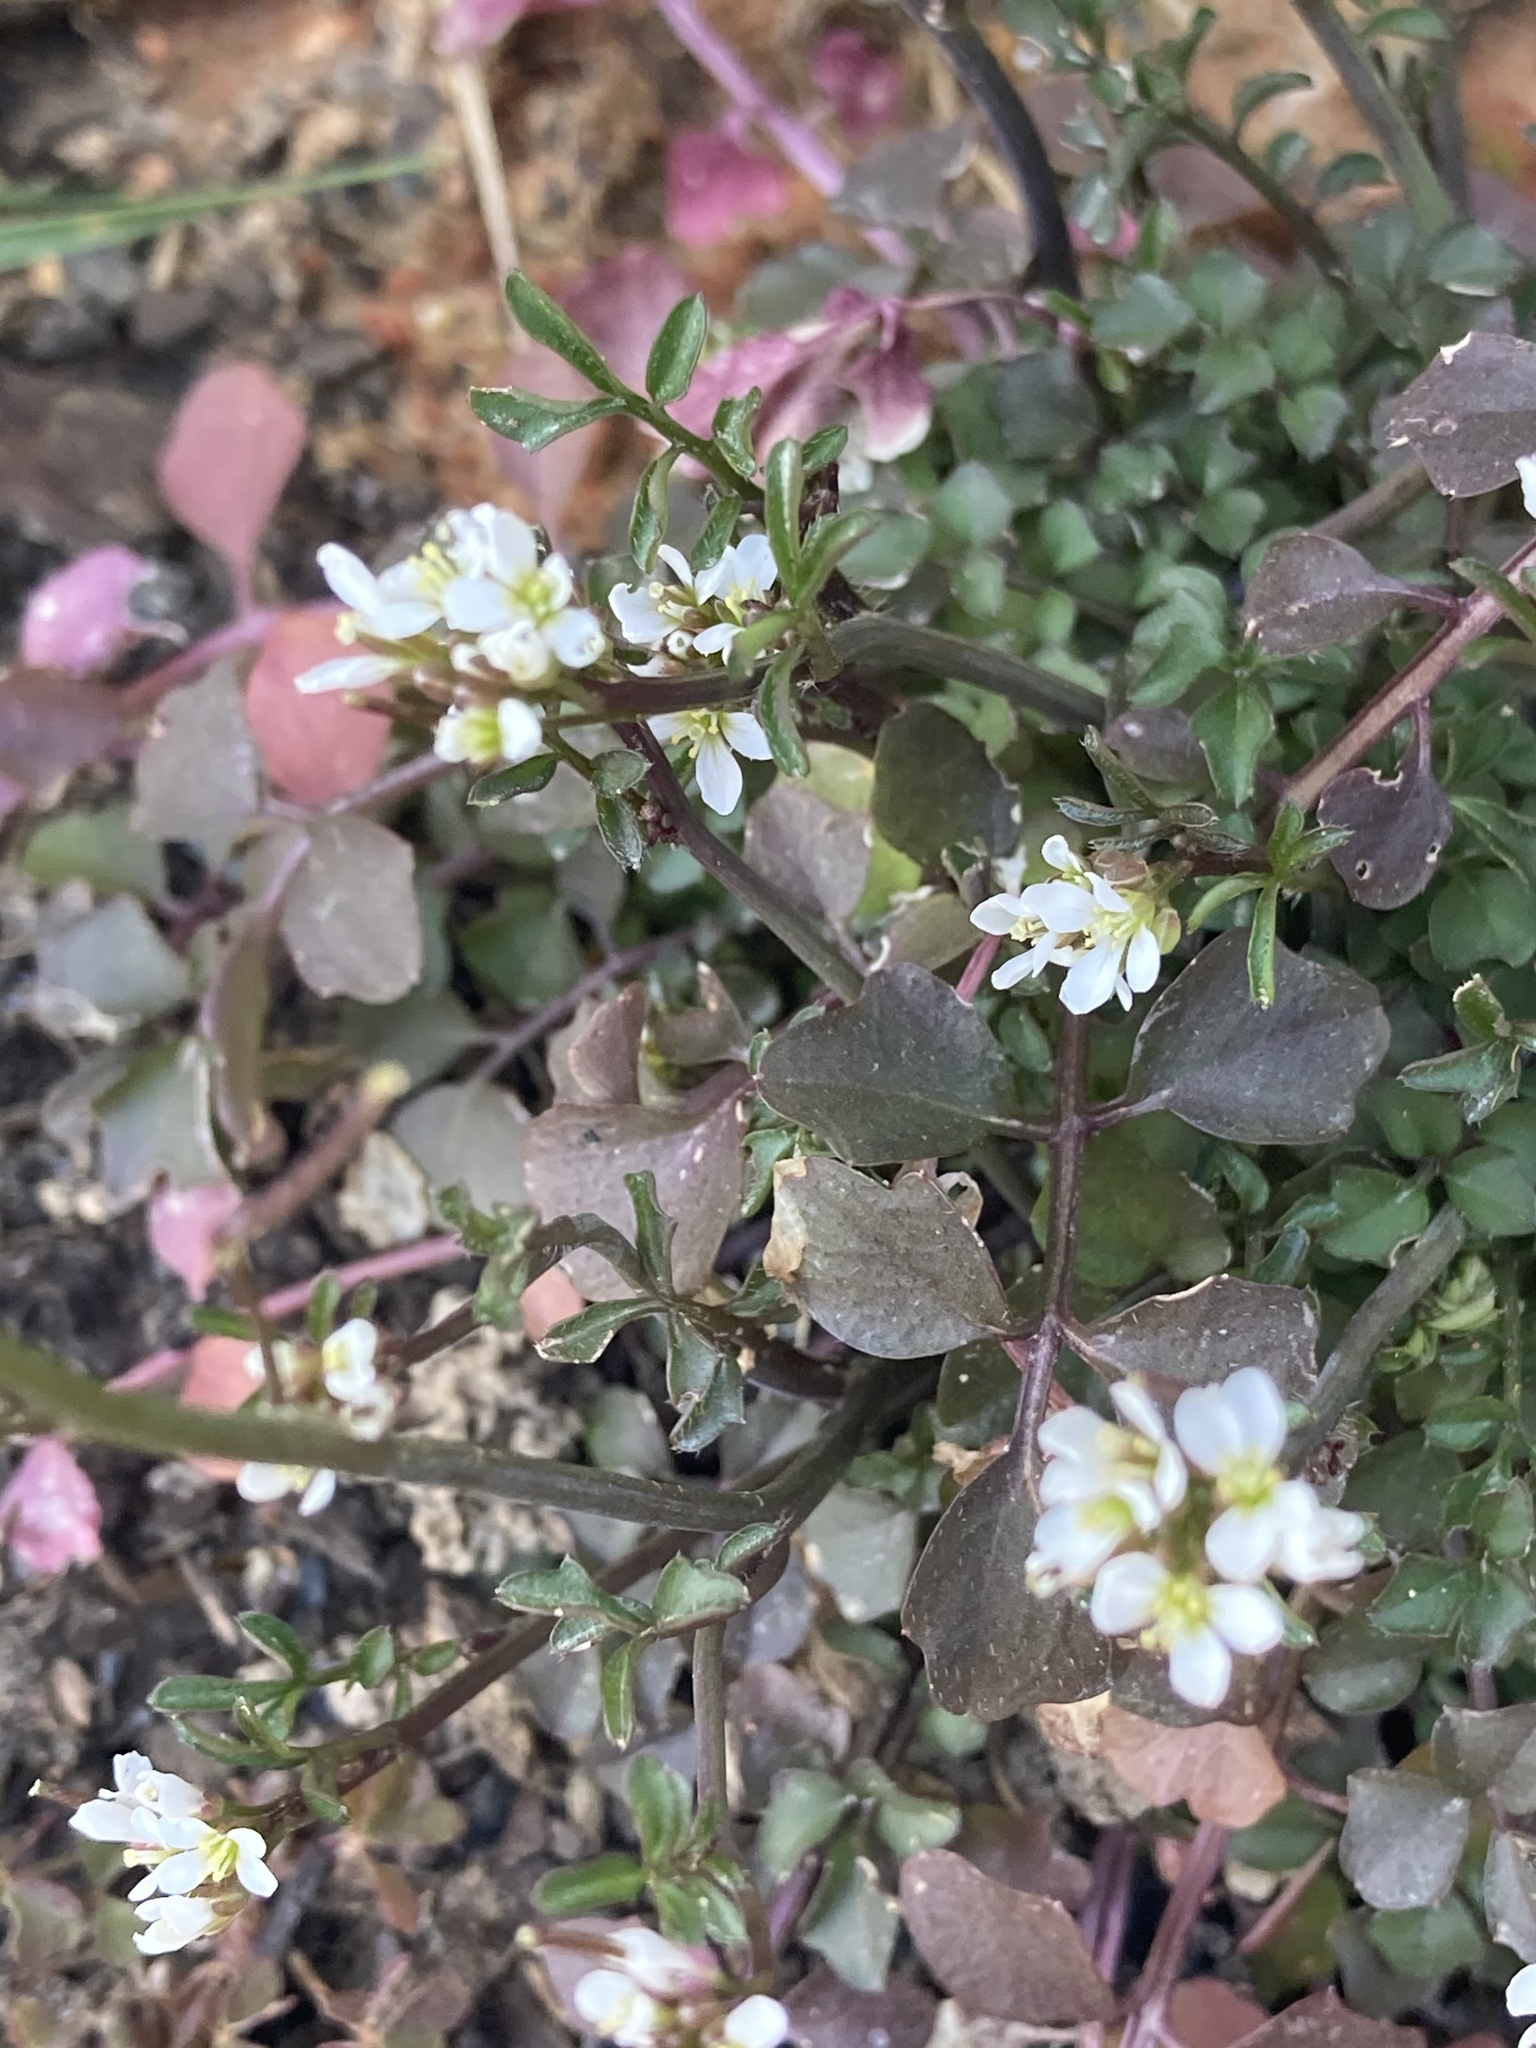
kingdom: Plantae
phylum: Tracheophyta
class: Magnoliopsida
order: Brassicales
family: Brassicaceae
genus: Cardamine
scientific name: Cardamine hirsuta
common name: Hairy bittercress
